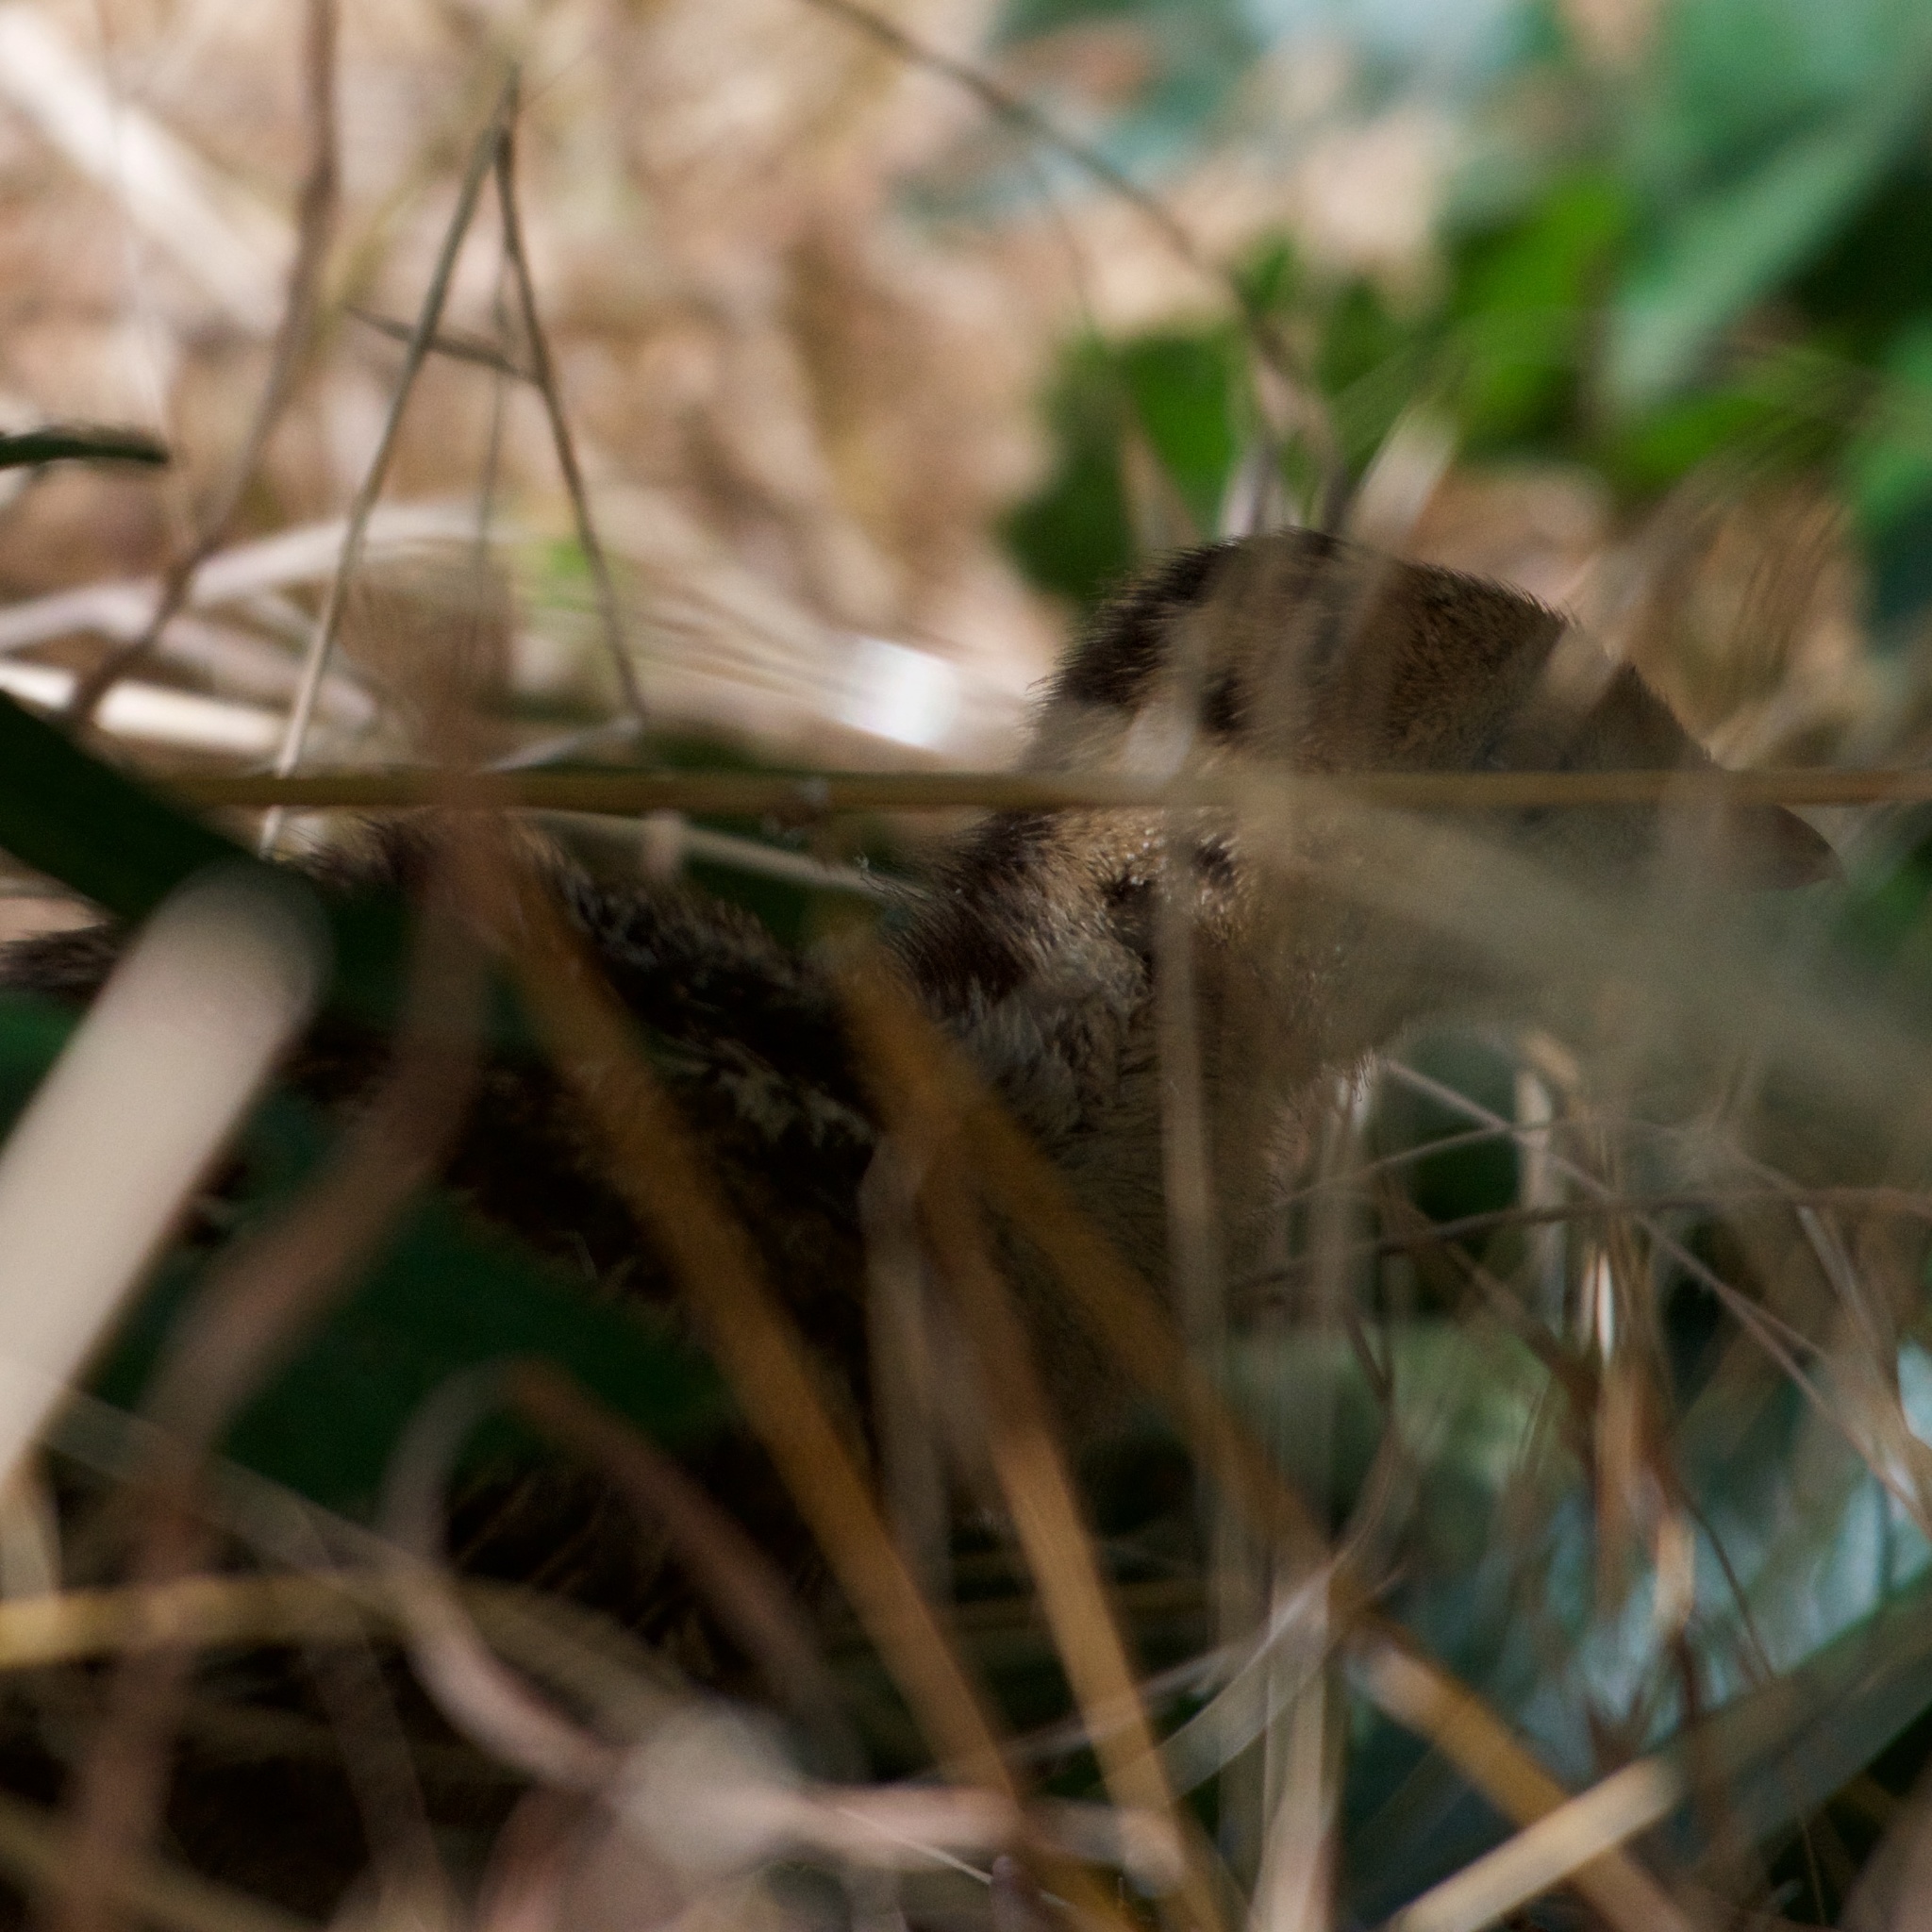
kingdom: Animalia
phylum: Chordata
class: Aves
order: Galliformes
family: Phasianidae
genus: Meleagris
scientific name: Meleagris gallopavo
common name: Wild turkey
